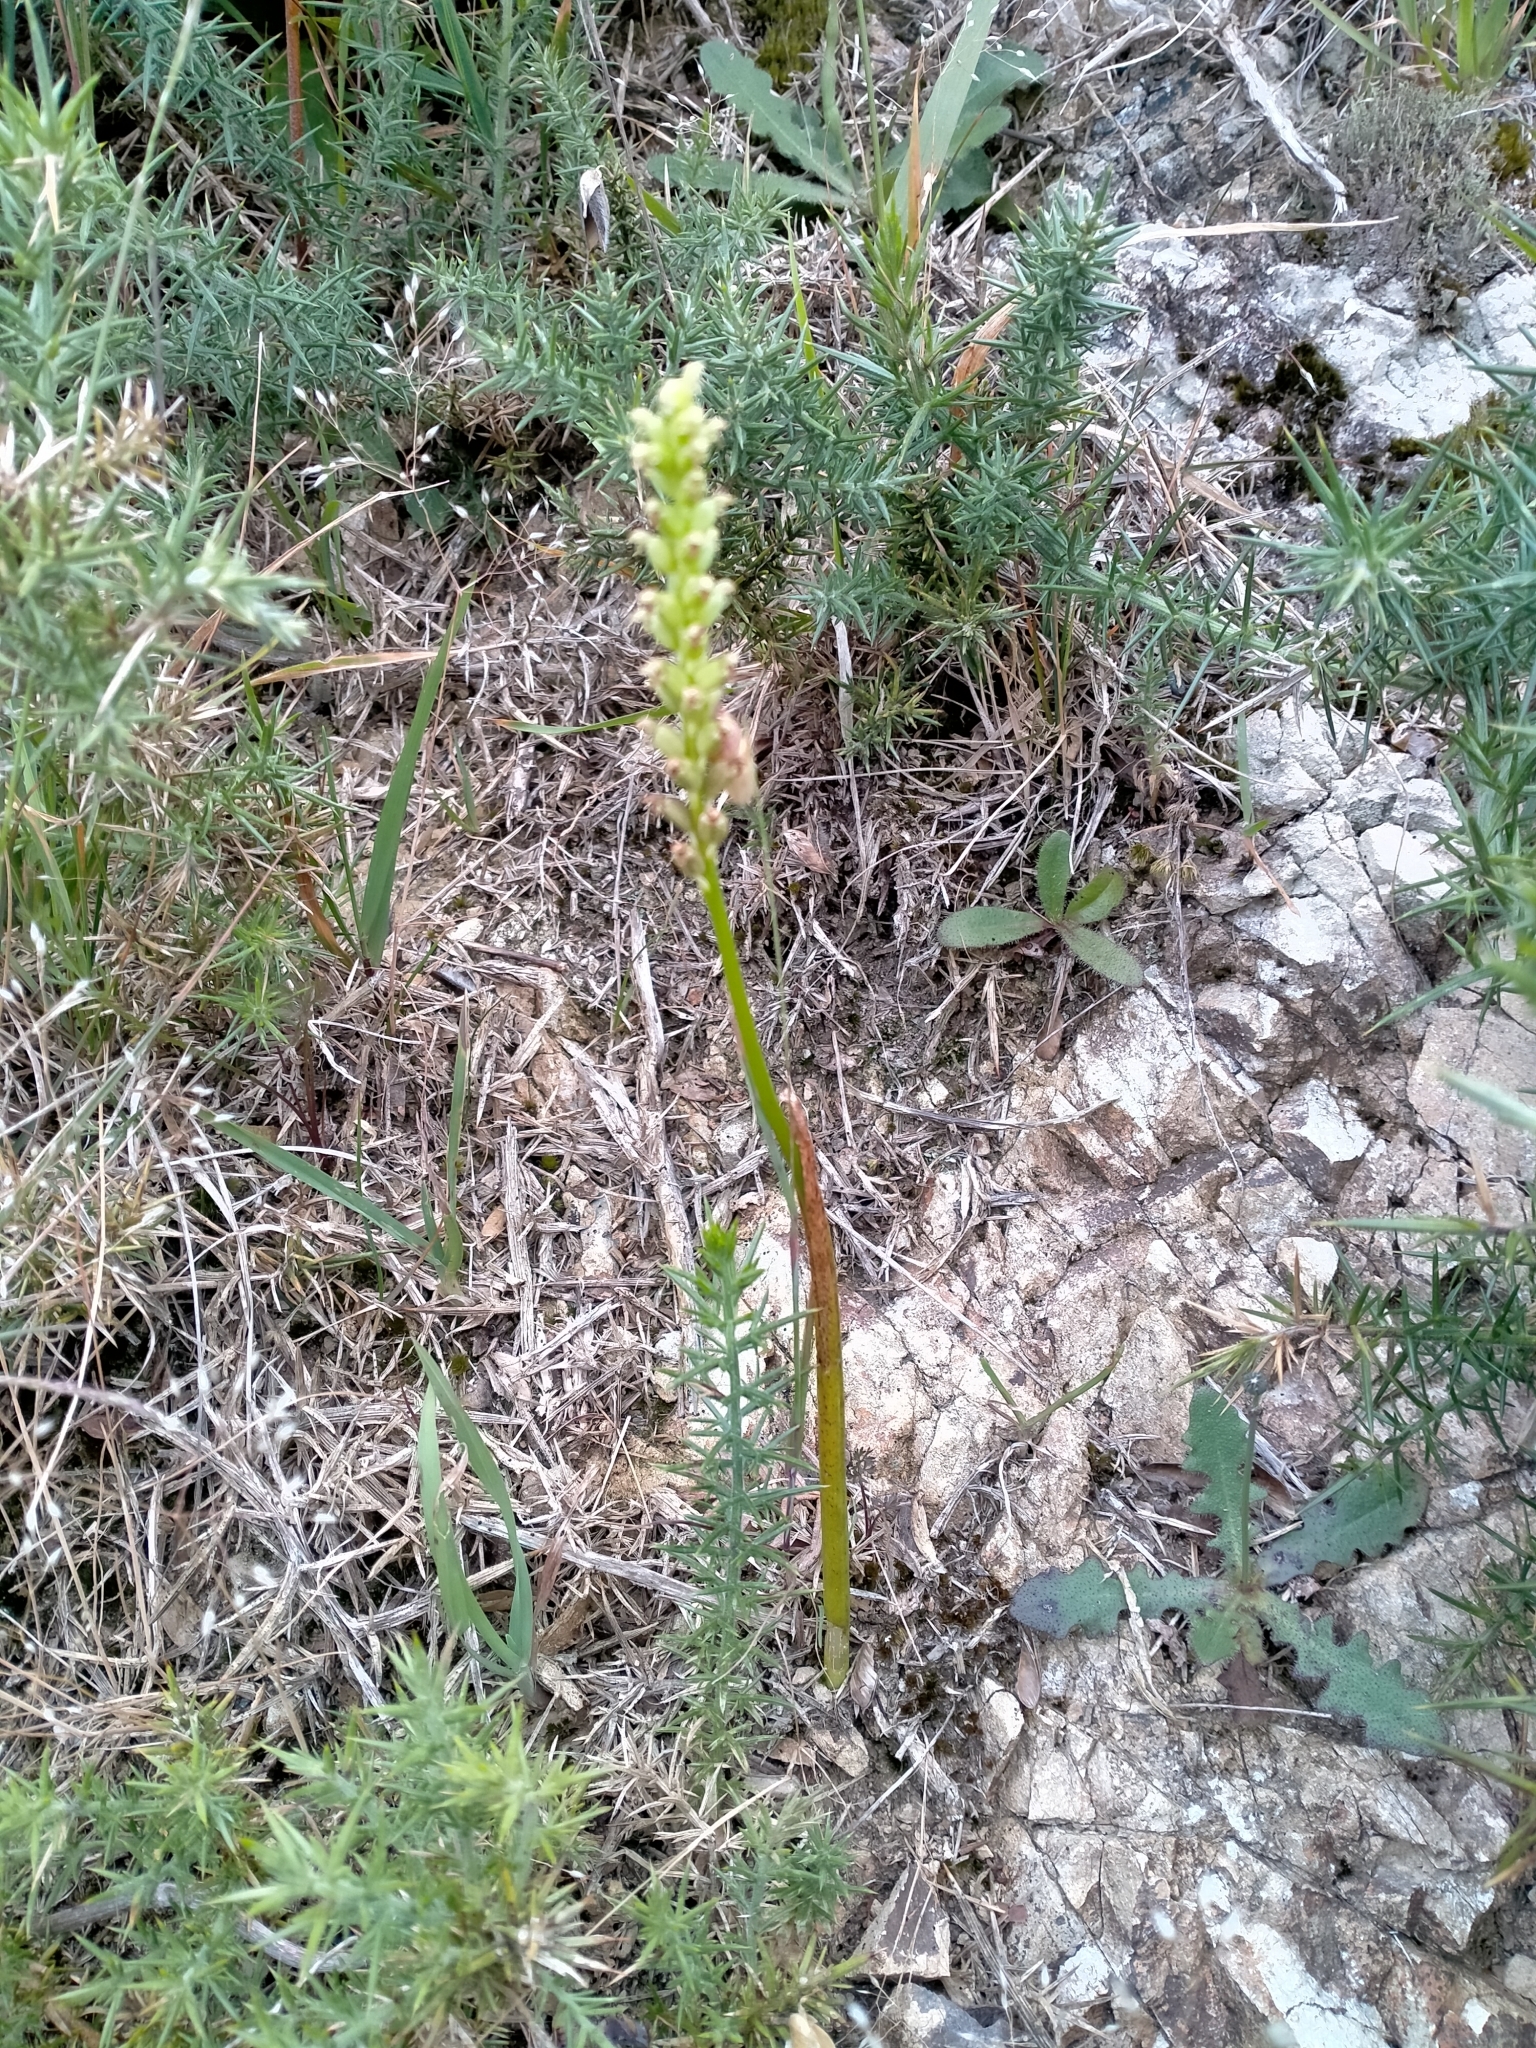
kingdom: Plantae
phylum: Tracheophyta
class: Liliopsida
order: Asparagales
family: Orchidaceae
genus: Microtis
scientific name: Microtis unifolia
